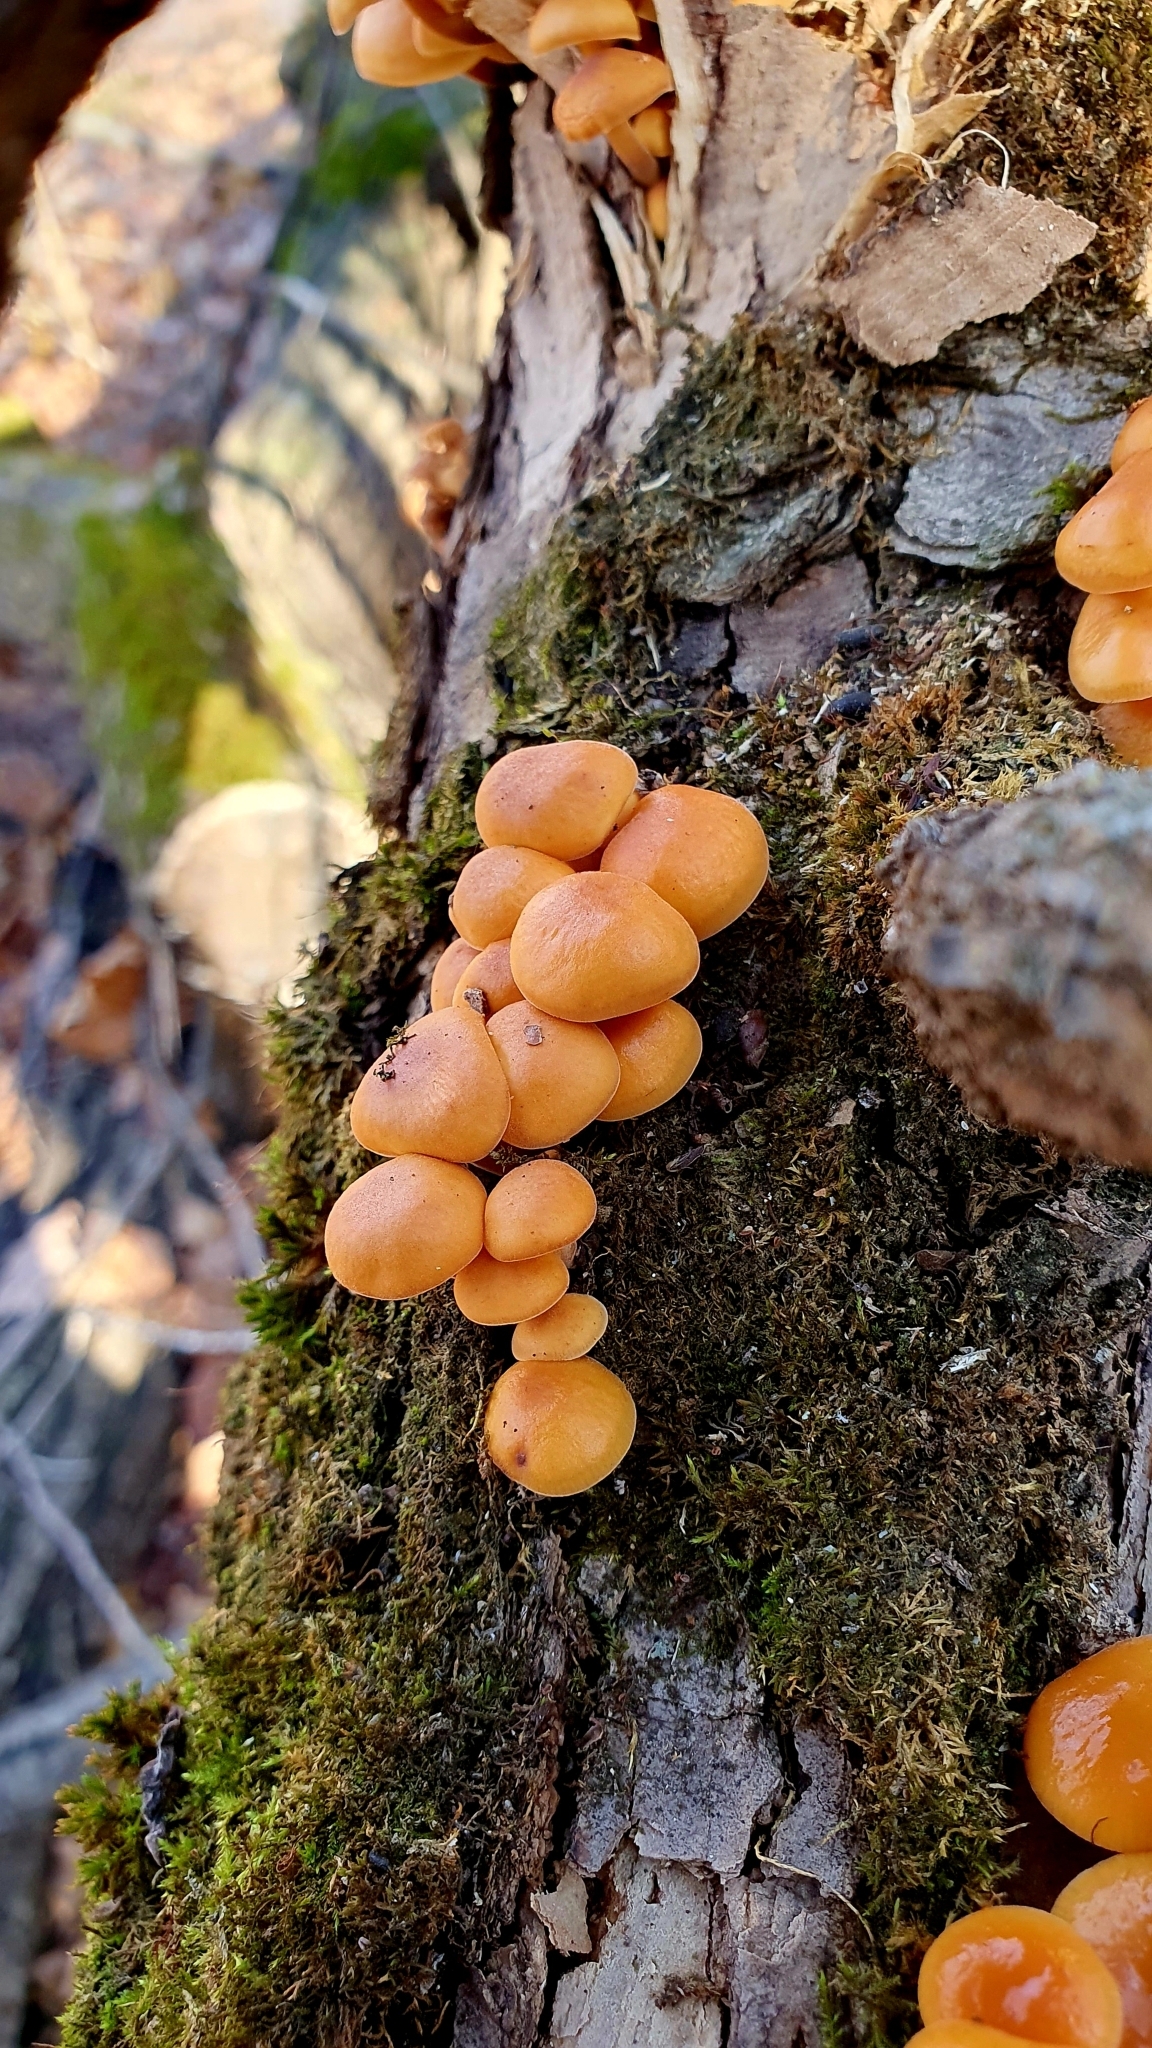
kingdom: Fungi
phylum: Basidiomycota
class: Agaricomycetes
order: Agaricales
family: Physalacriaceae
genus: Flammulina
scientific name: Flammulina
